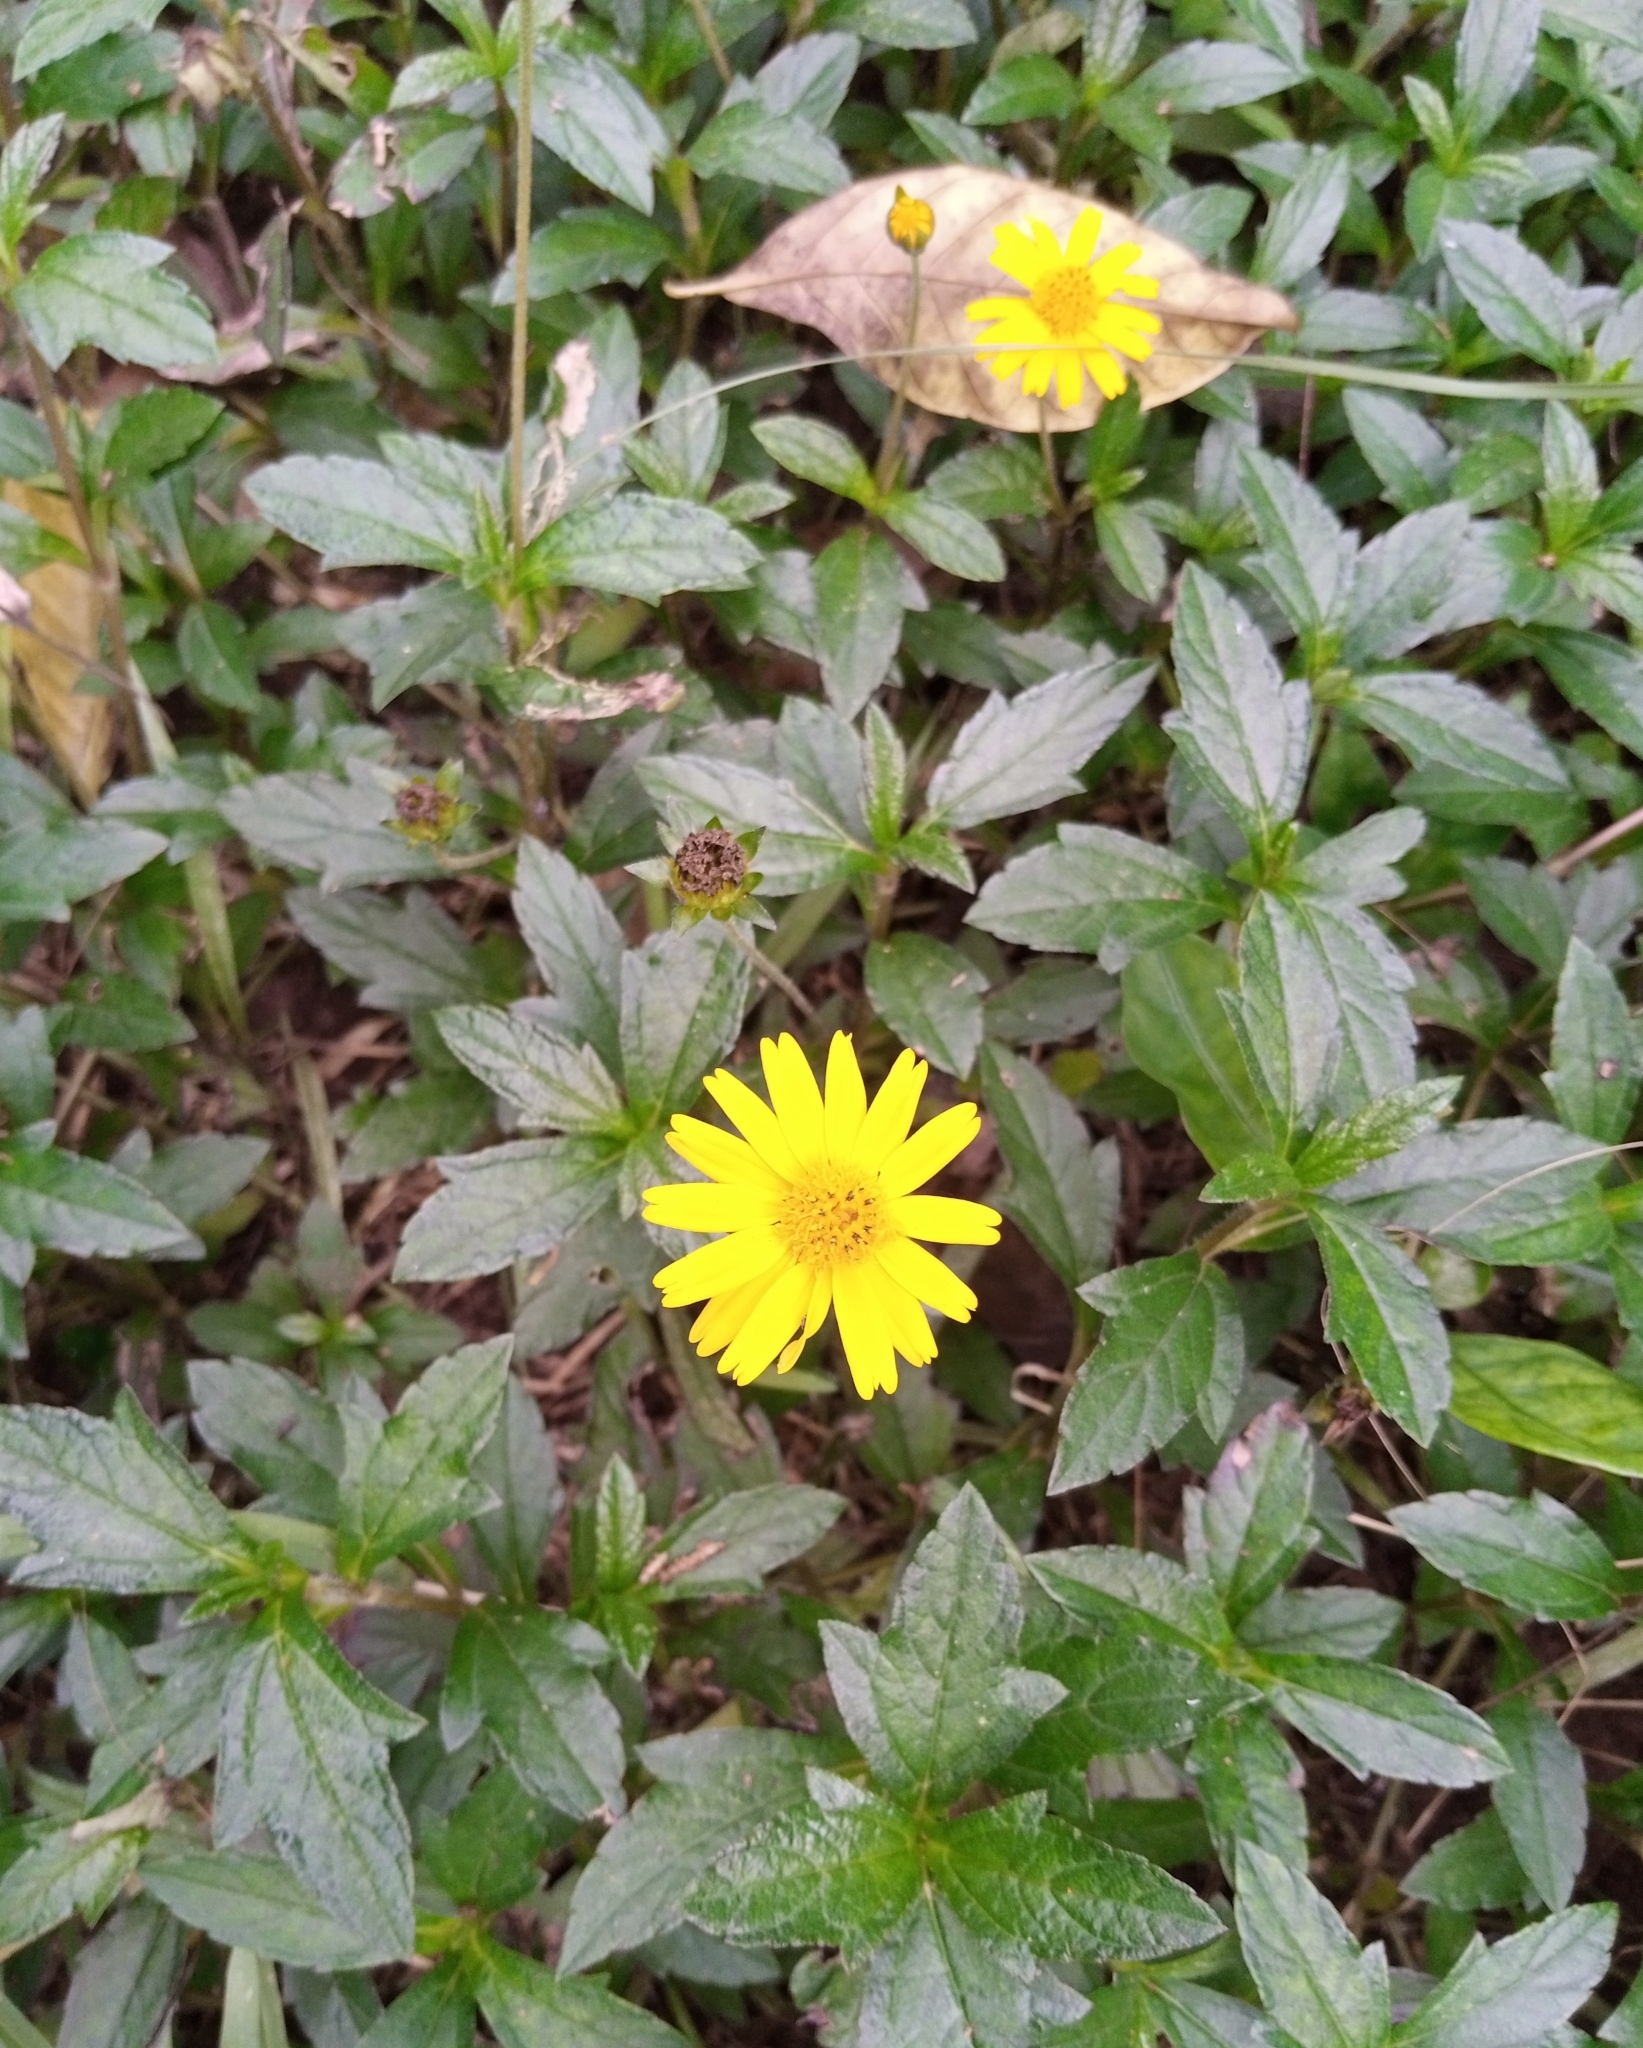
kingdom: Plantae
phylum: Tracheophyta
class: Magnoliopsida
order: Asterales
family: Asteraceae
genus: Sphagneticola
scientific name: Sphagneticola trilobata
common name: Bay biscayne creeping-oxeye
